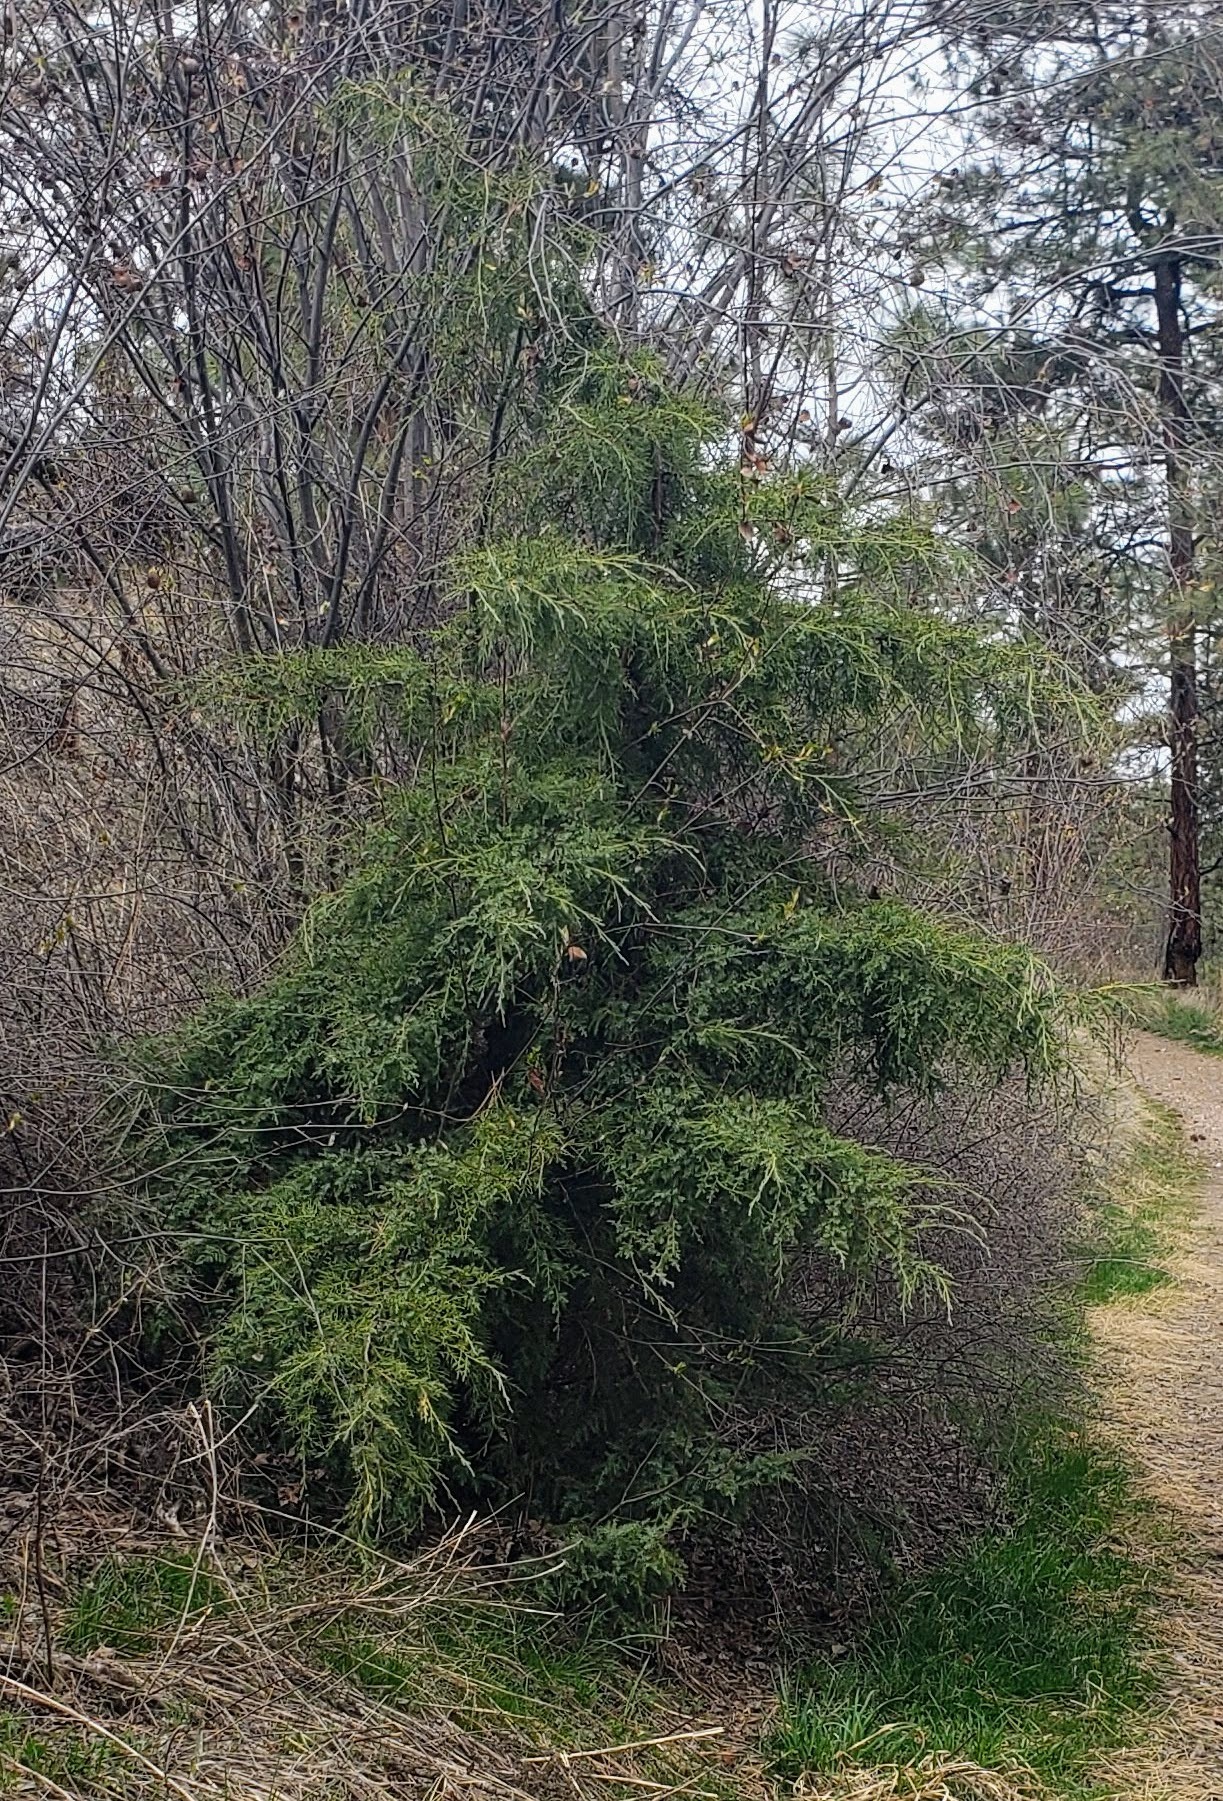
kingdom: Plantae
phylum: Tracheophyta
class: Pinopsida
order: Pinales
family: Cupressaceae
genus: Juniperus
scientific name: Juniperus scopulorum
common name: Rocky mountain juniper
